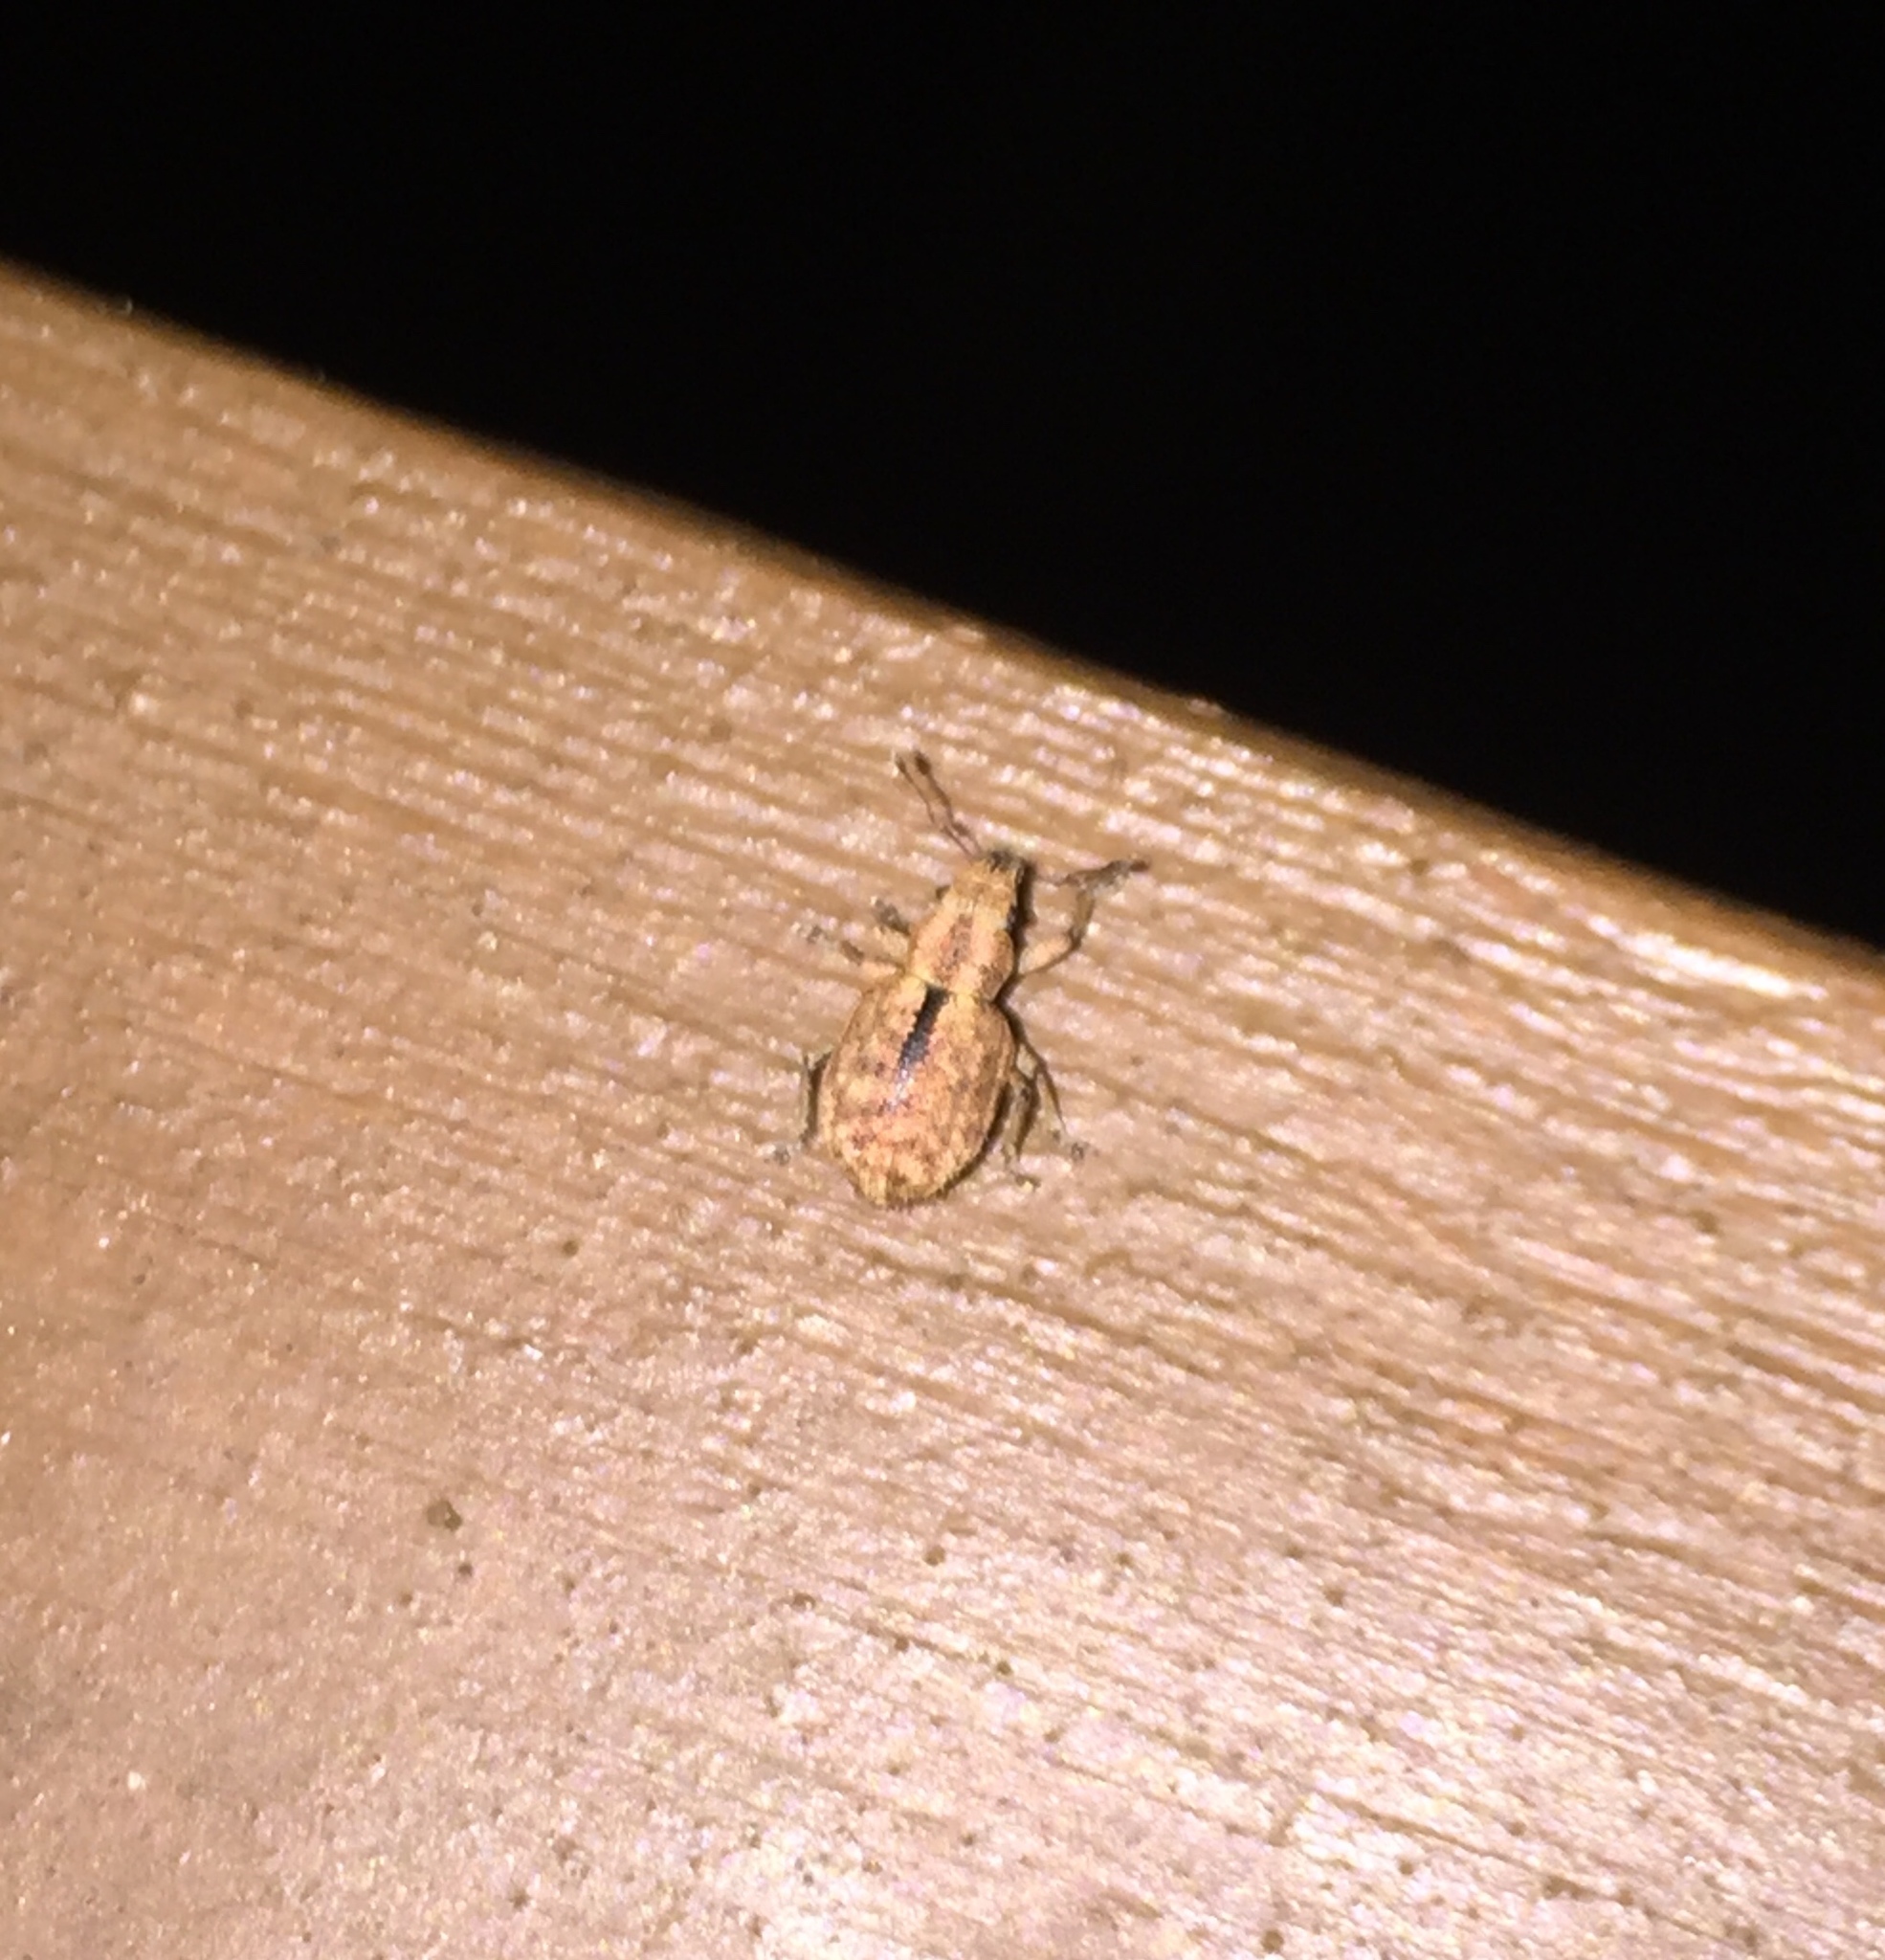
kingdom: Animalia
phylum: Arthropoda
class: Insecta
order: Coleoptera
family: Curculionidae
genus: Strophosoma
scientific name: Strophosoma melanogrammum
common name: Weevil
